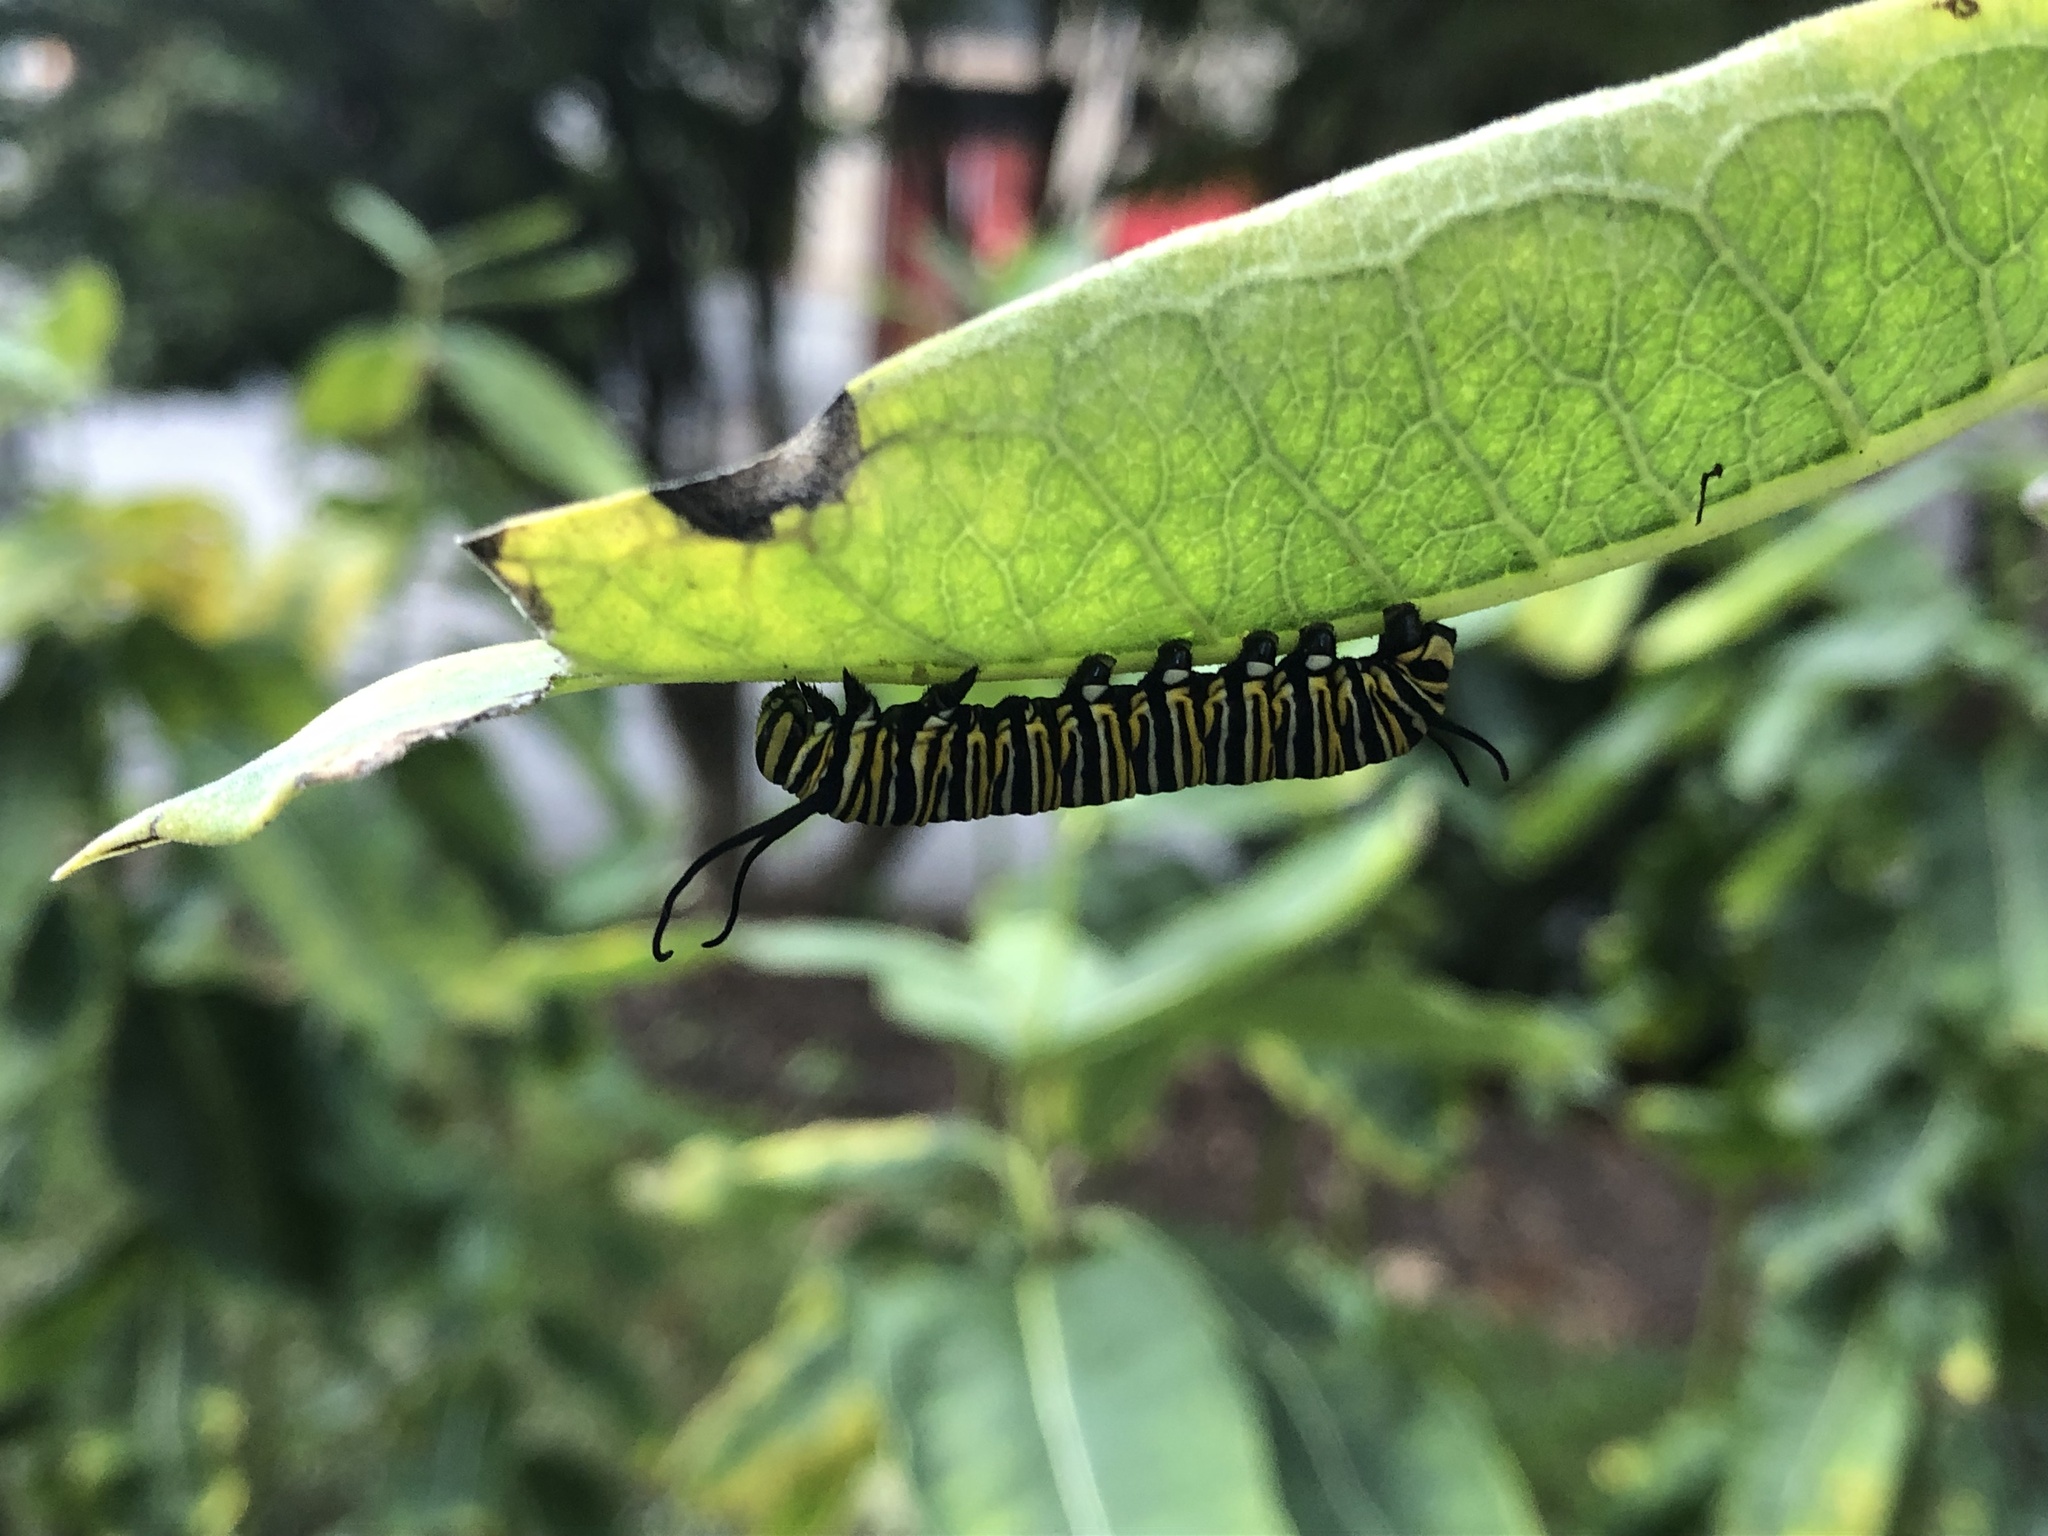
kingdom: Animalia
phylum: Arthropoda
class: Insecta
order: Lepidoptera
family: Nymphalidae
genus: Danaus
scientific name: Danaus plexippus
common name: Monarch
